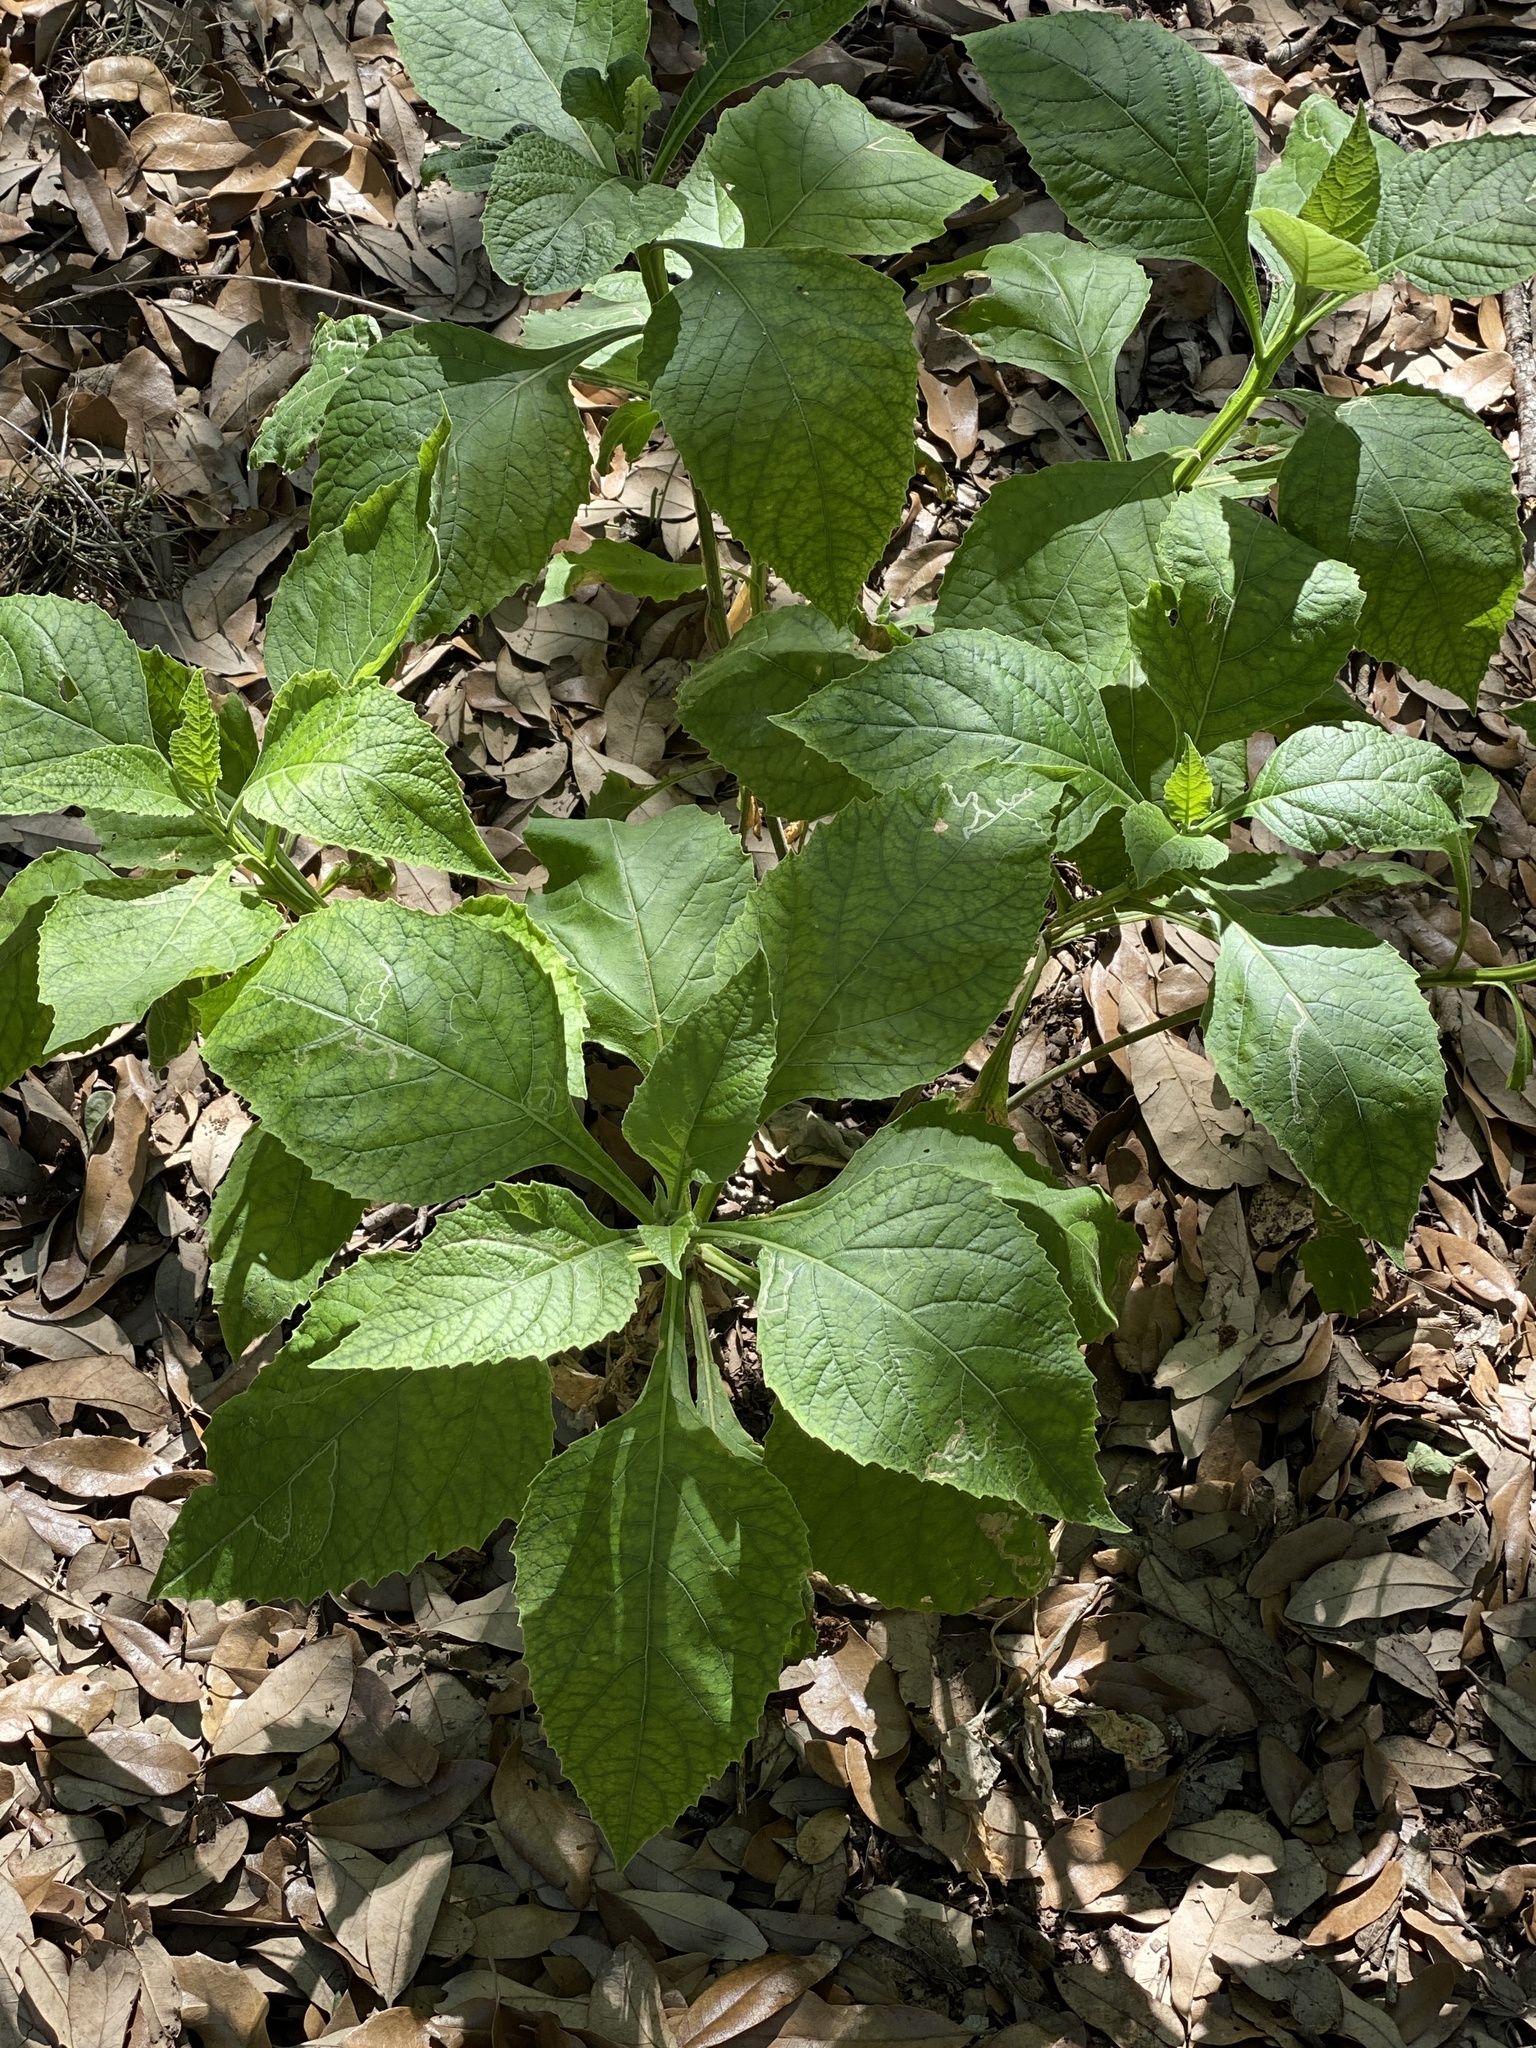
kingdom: Plantae
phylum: Tracheophyta
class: Magnoliopsida
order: Asterales
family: Asteraceae
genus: Verbesina
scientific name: Verbesina virginica
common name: Frostweed
